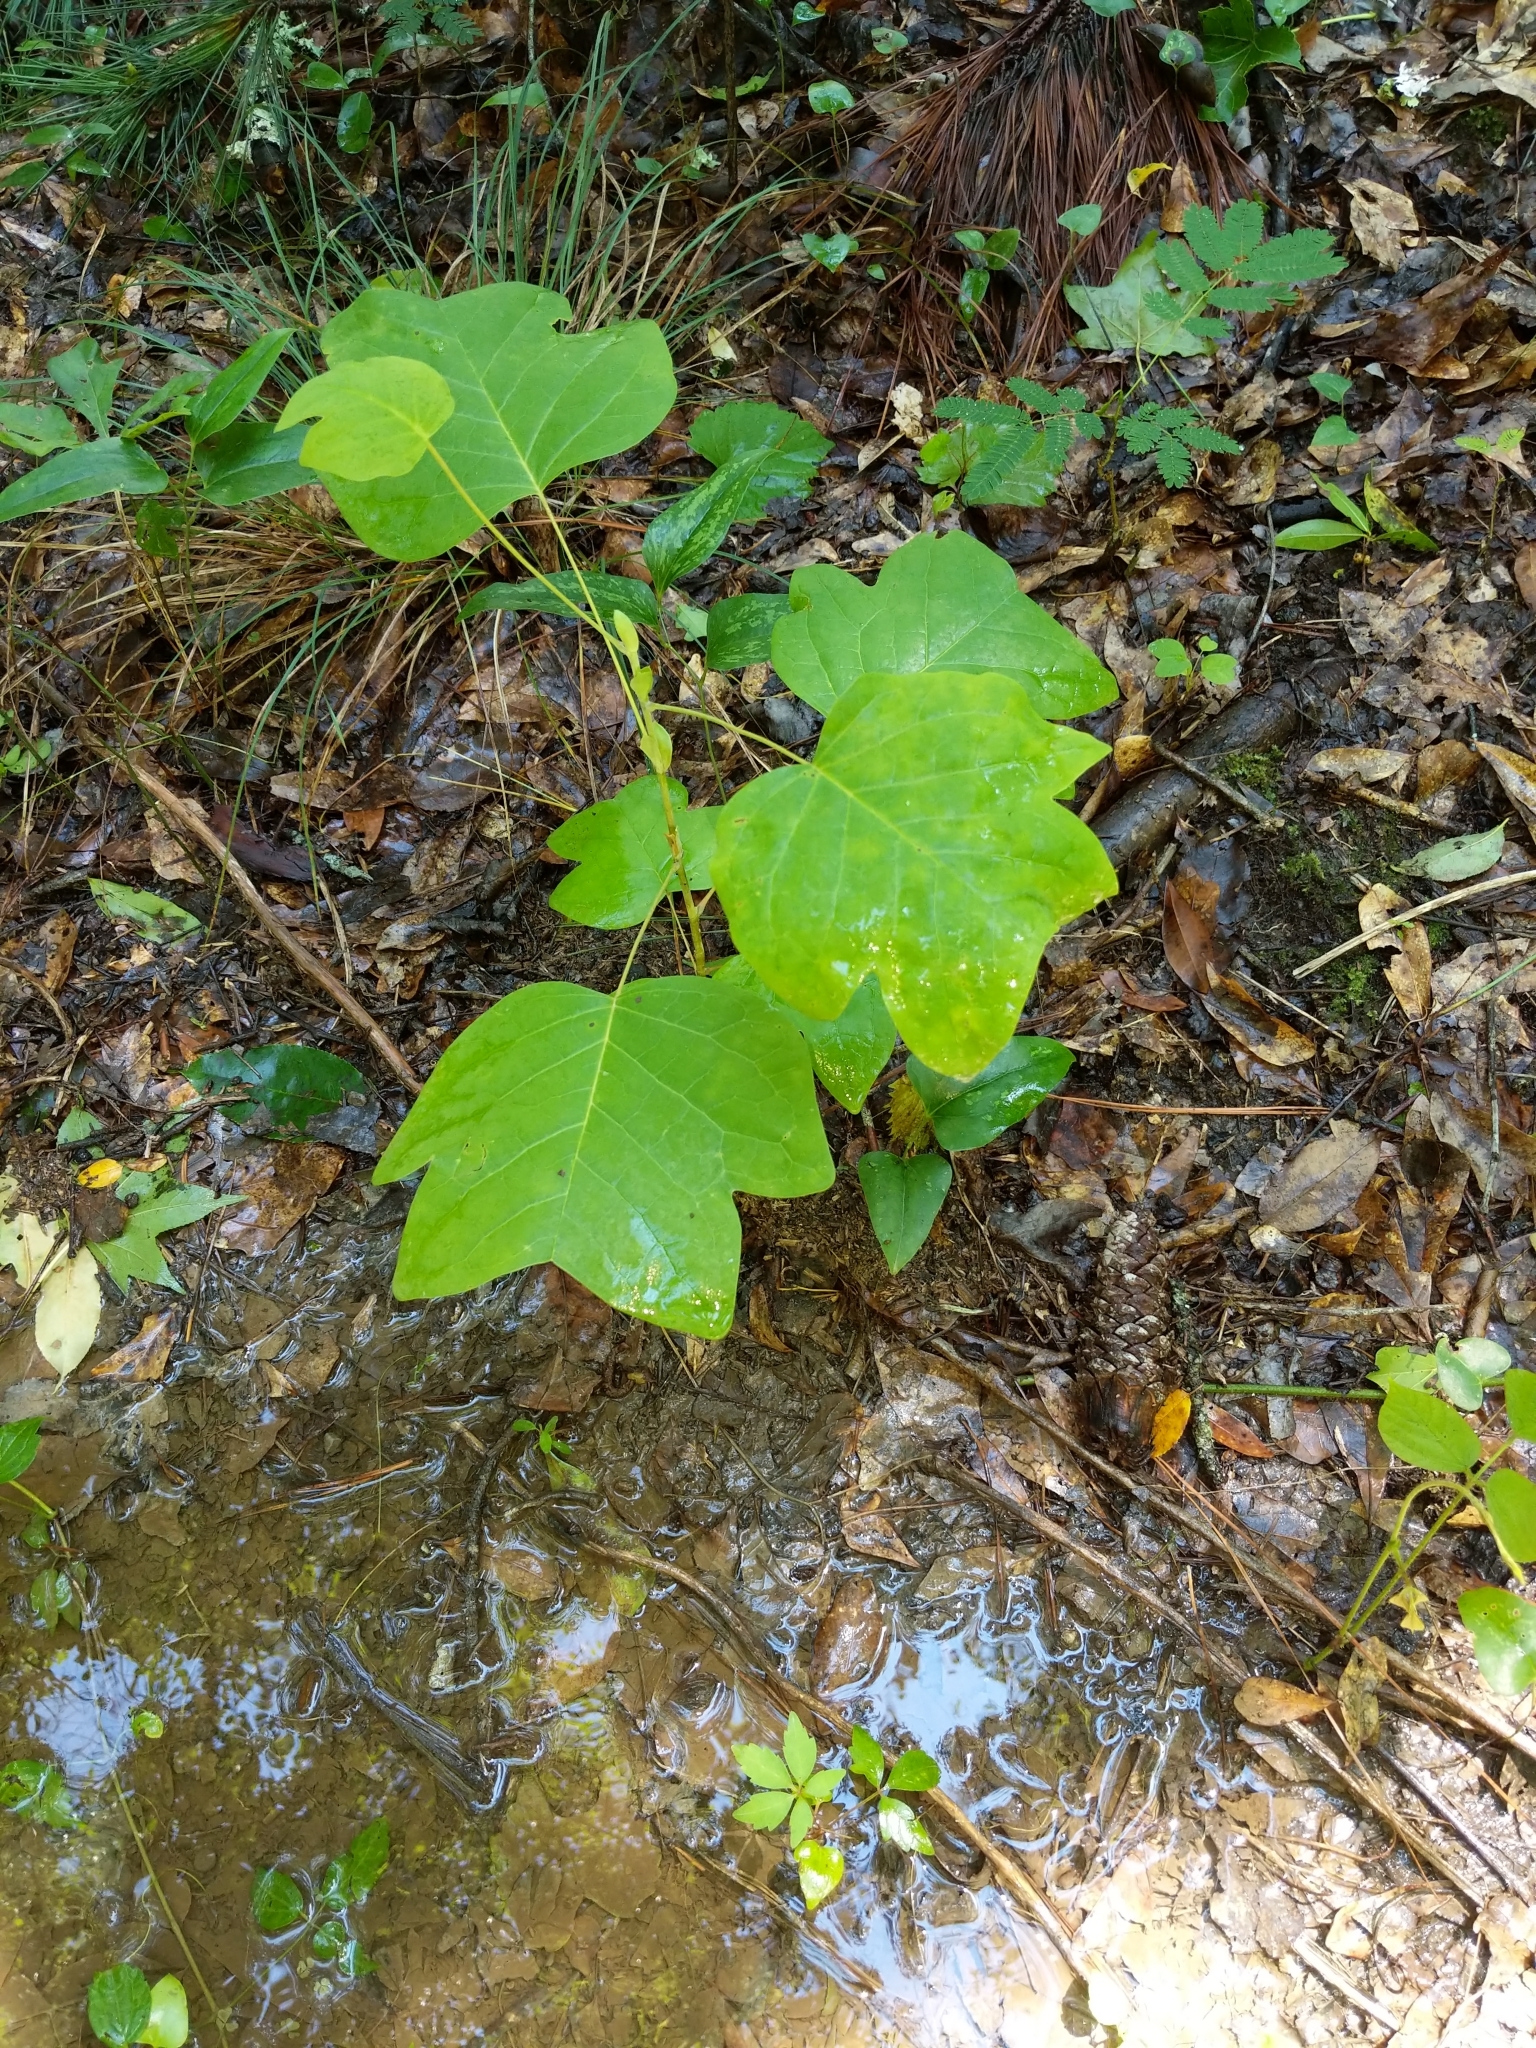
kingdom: Plantae
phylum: Tracheophyta
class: Magnoliopsida
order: Magnoliales
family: Magnoliaceae
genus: Liriodendron
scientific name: Liriodendron tulipifera
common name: Tulip tree
